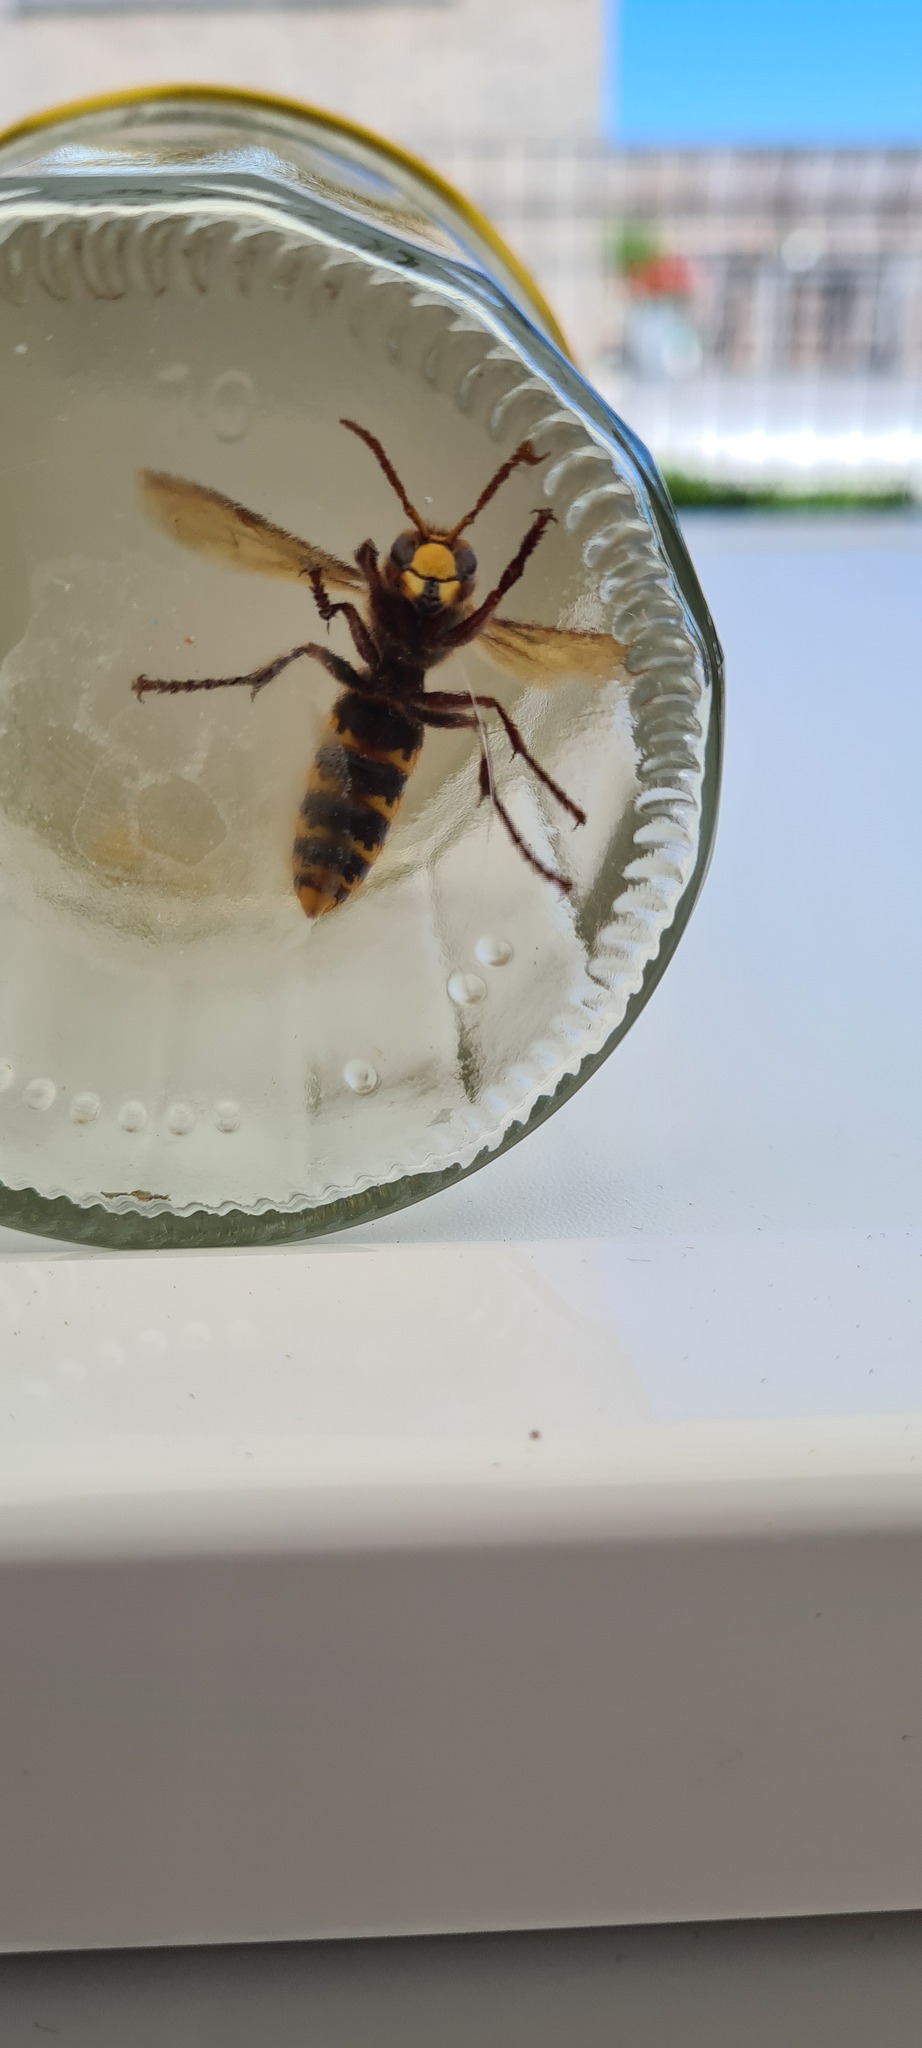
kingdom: Animalia
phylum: Arthropoda
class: Insecta
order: Hymenoptera
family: Vespidae
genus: Vespa
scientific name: Vespa crabro
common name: Hornet
